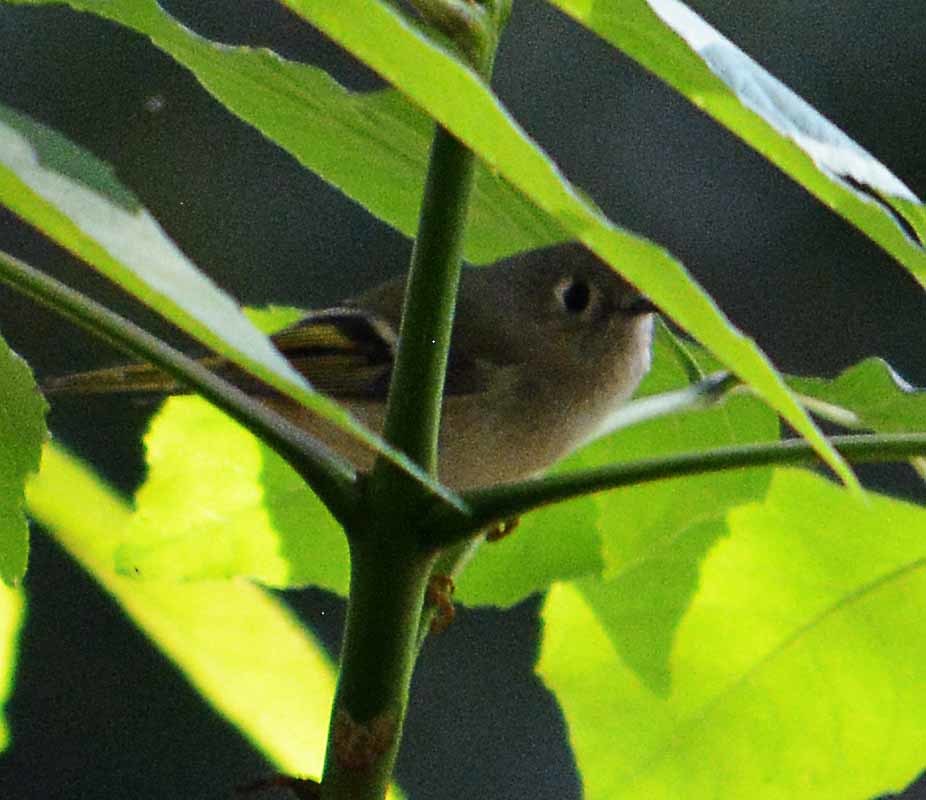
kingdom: Animalia
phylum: Chordata
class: Aves
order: Passeriformes
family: Regulidae
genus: Regulus
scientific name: Regulus calendula
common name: Ruby-crowned kinglet
